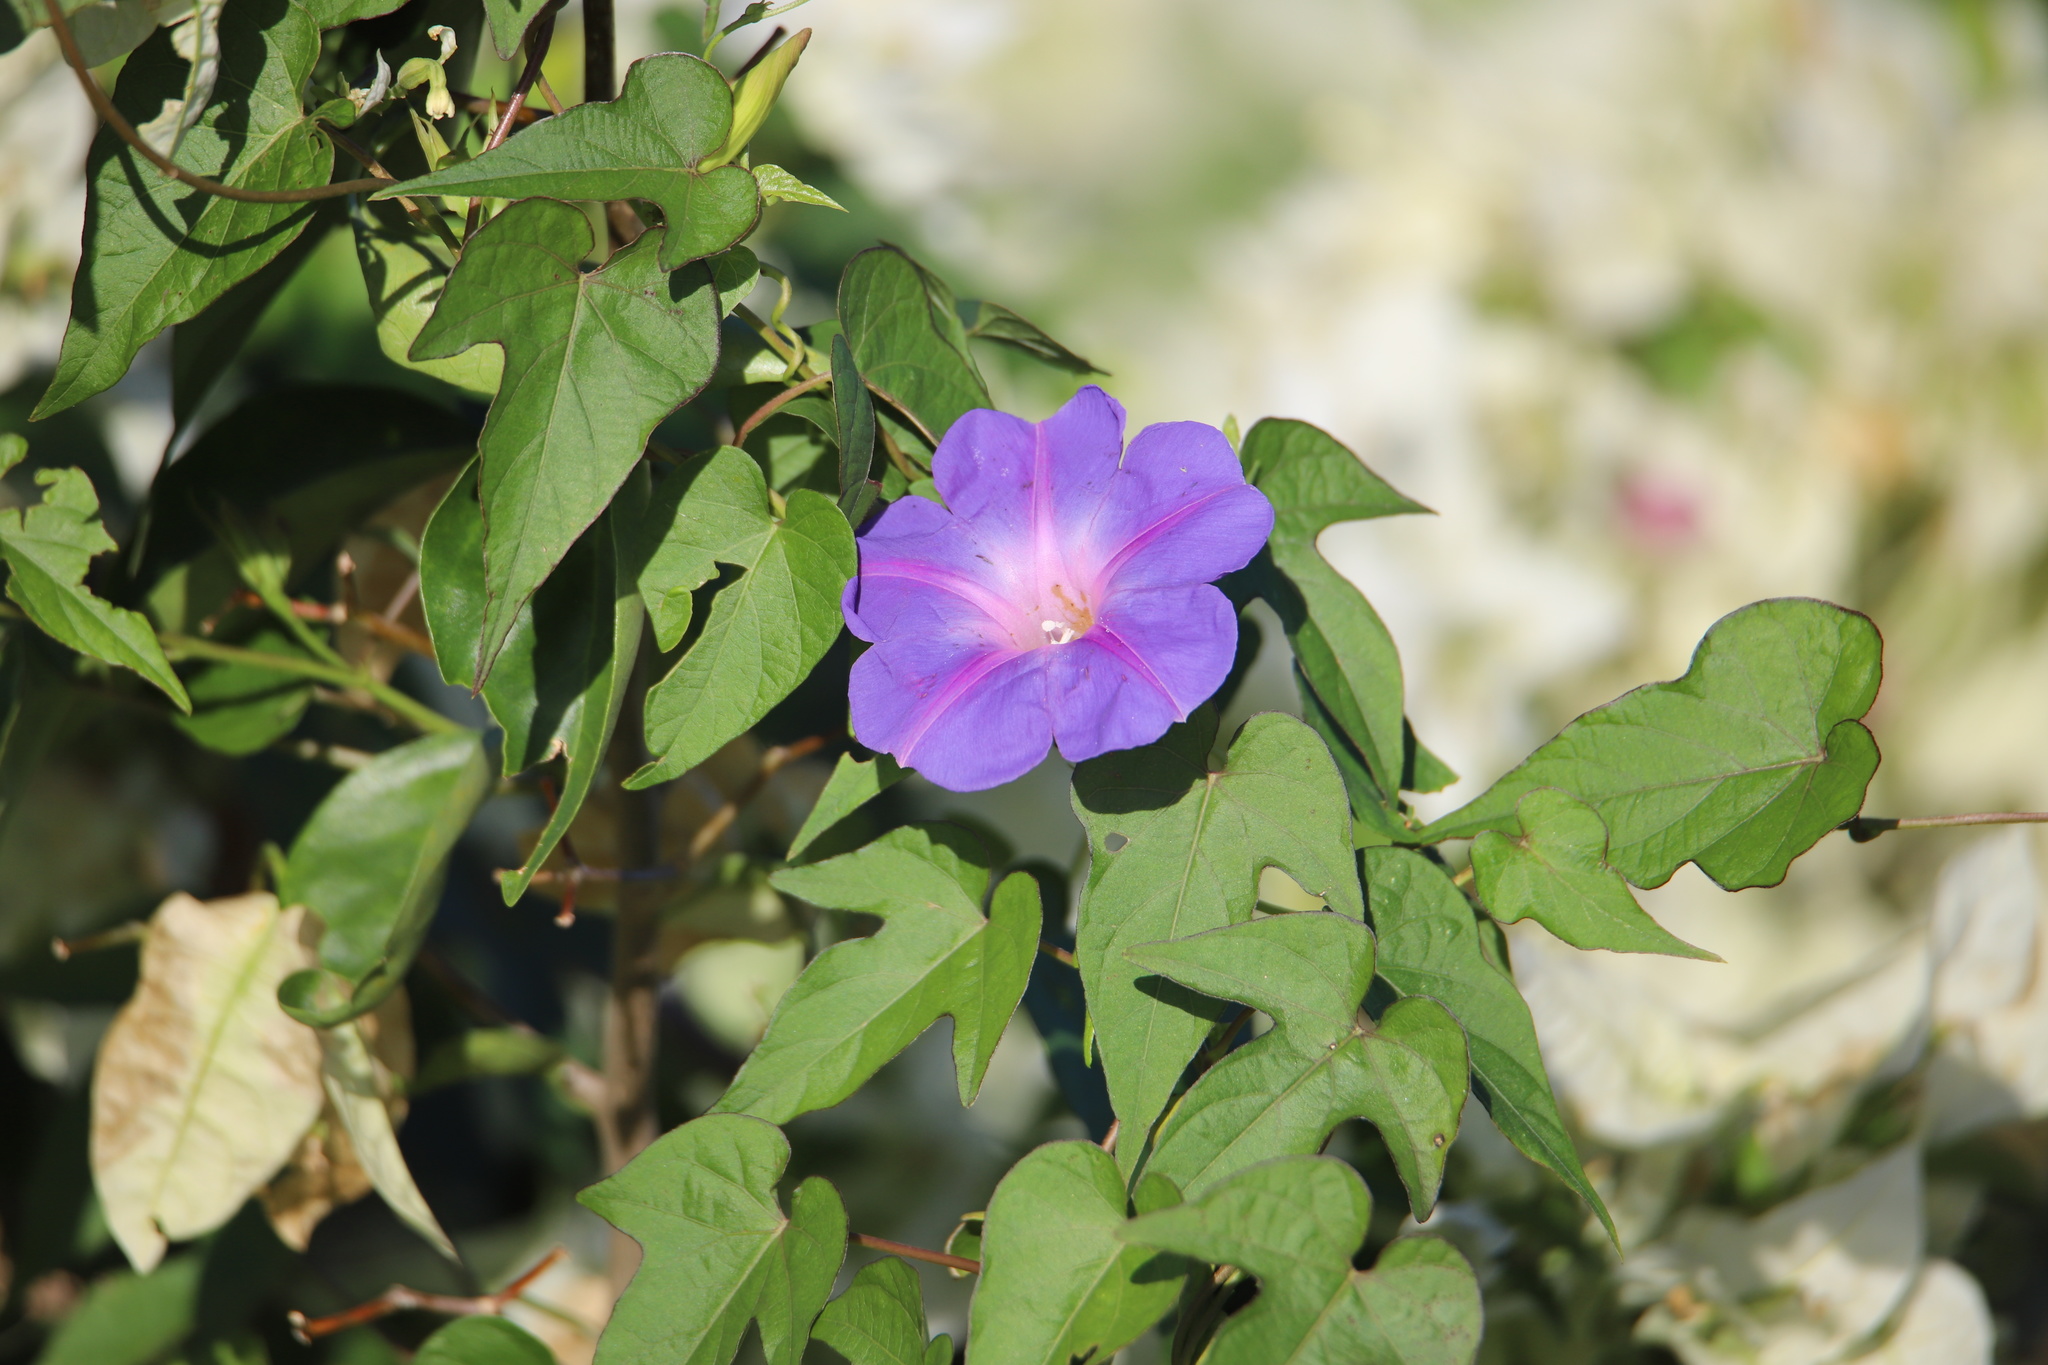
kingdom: Plantae
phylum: Tracheophyta
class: Magnoliopsida
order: Solanales
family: Convolvulaceae
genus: Ipomoea
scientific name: Ipomoea indica
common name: Blue dawnflower
